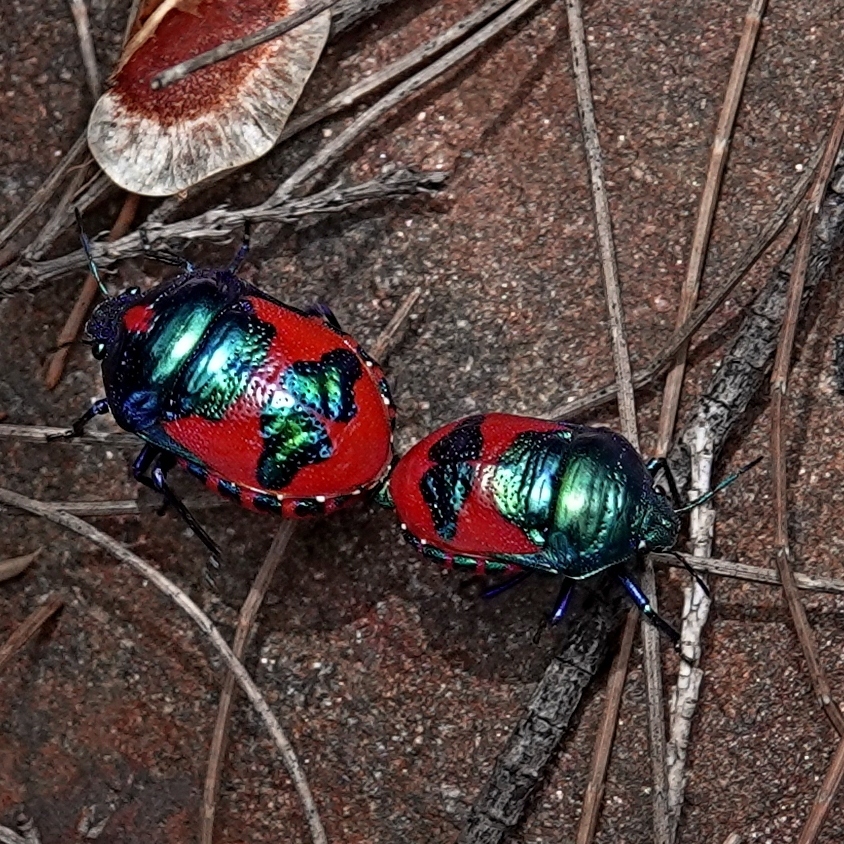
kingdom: Animalia
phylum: Arthropoda
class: Insecta
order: Hemiptera
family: Scutelleridae
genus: Choerocoris
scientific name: Choerocoris paganus
